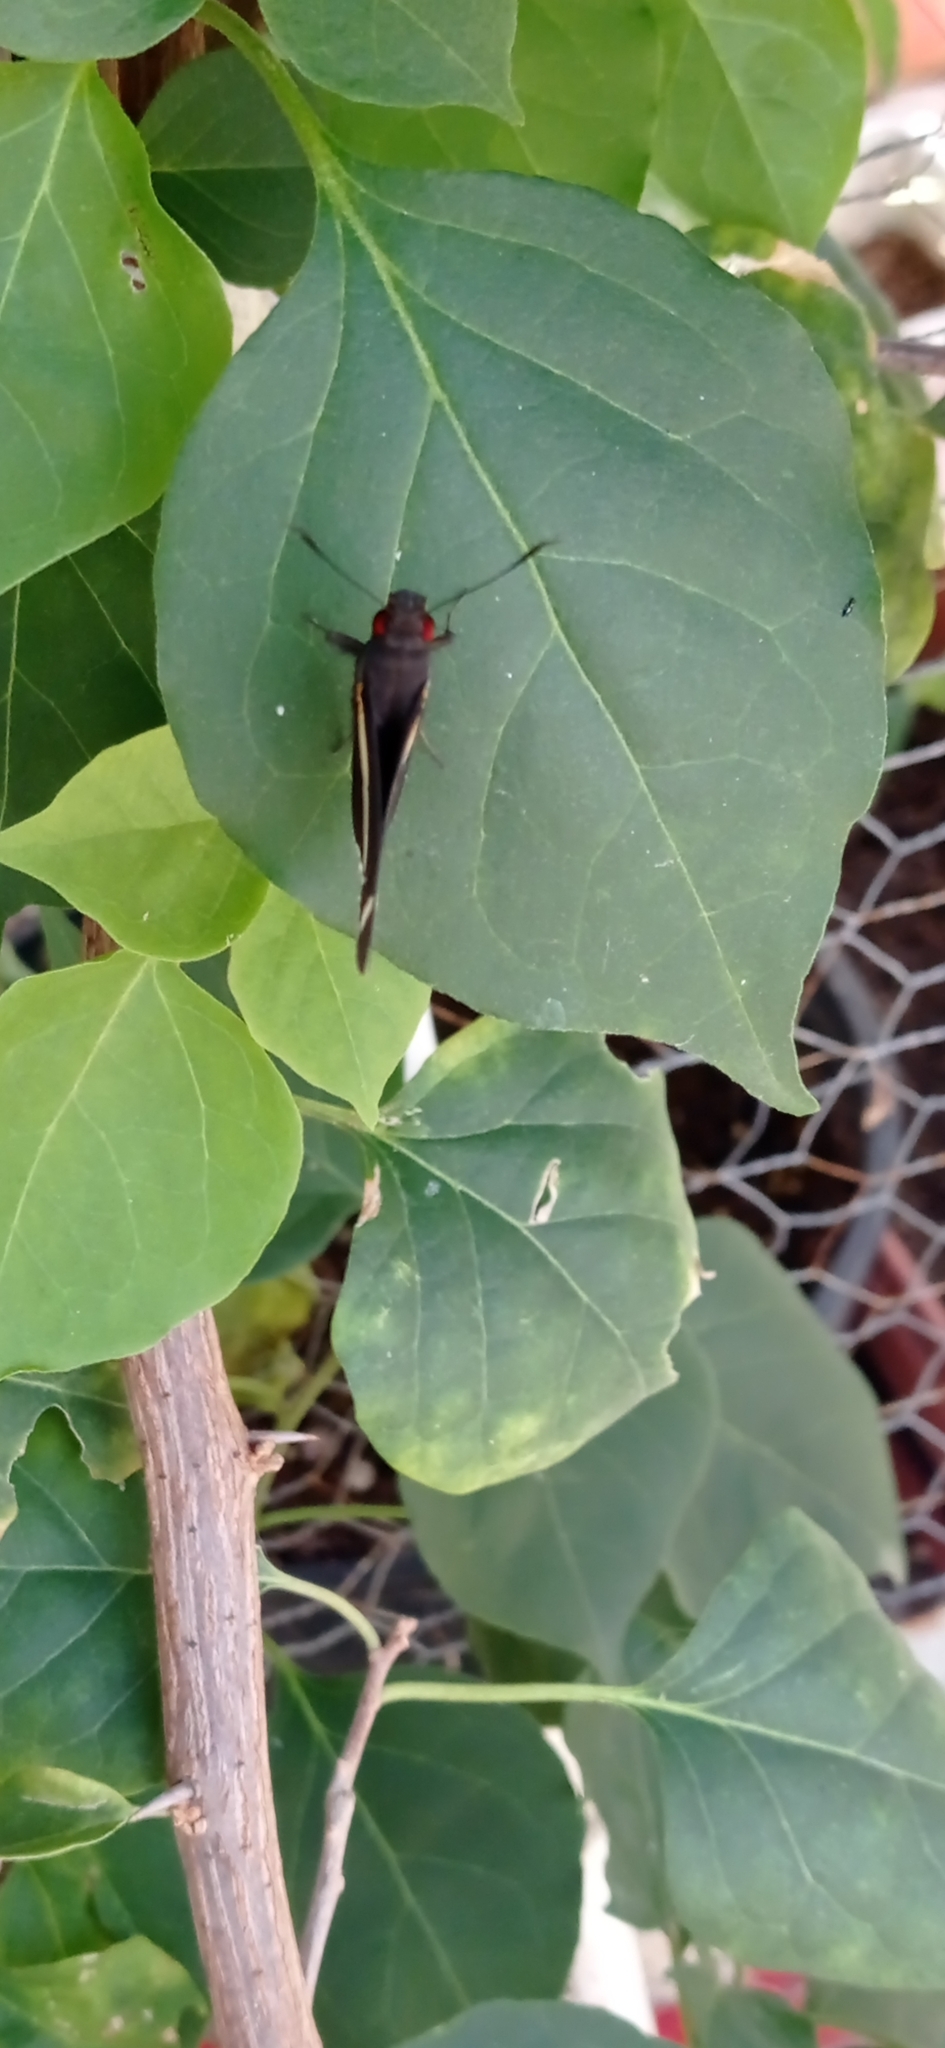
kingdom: Animalia
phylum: Arthropoda
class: Insecta
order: Lepidoptera
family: Hesperiidae
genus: Carystus
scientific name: Carystus
